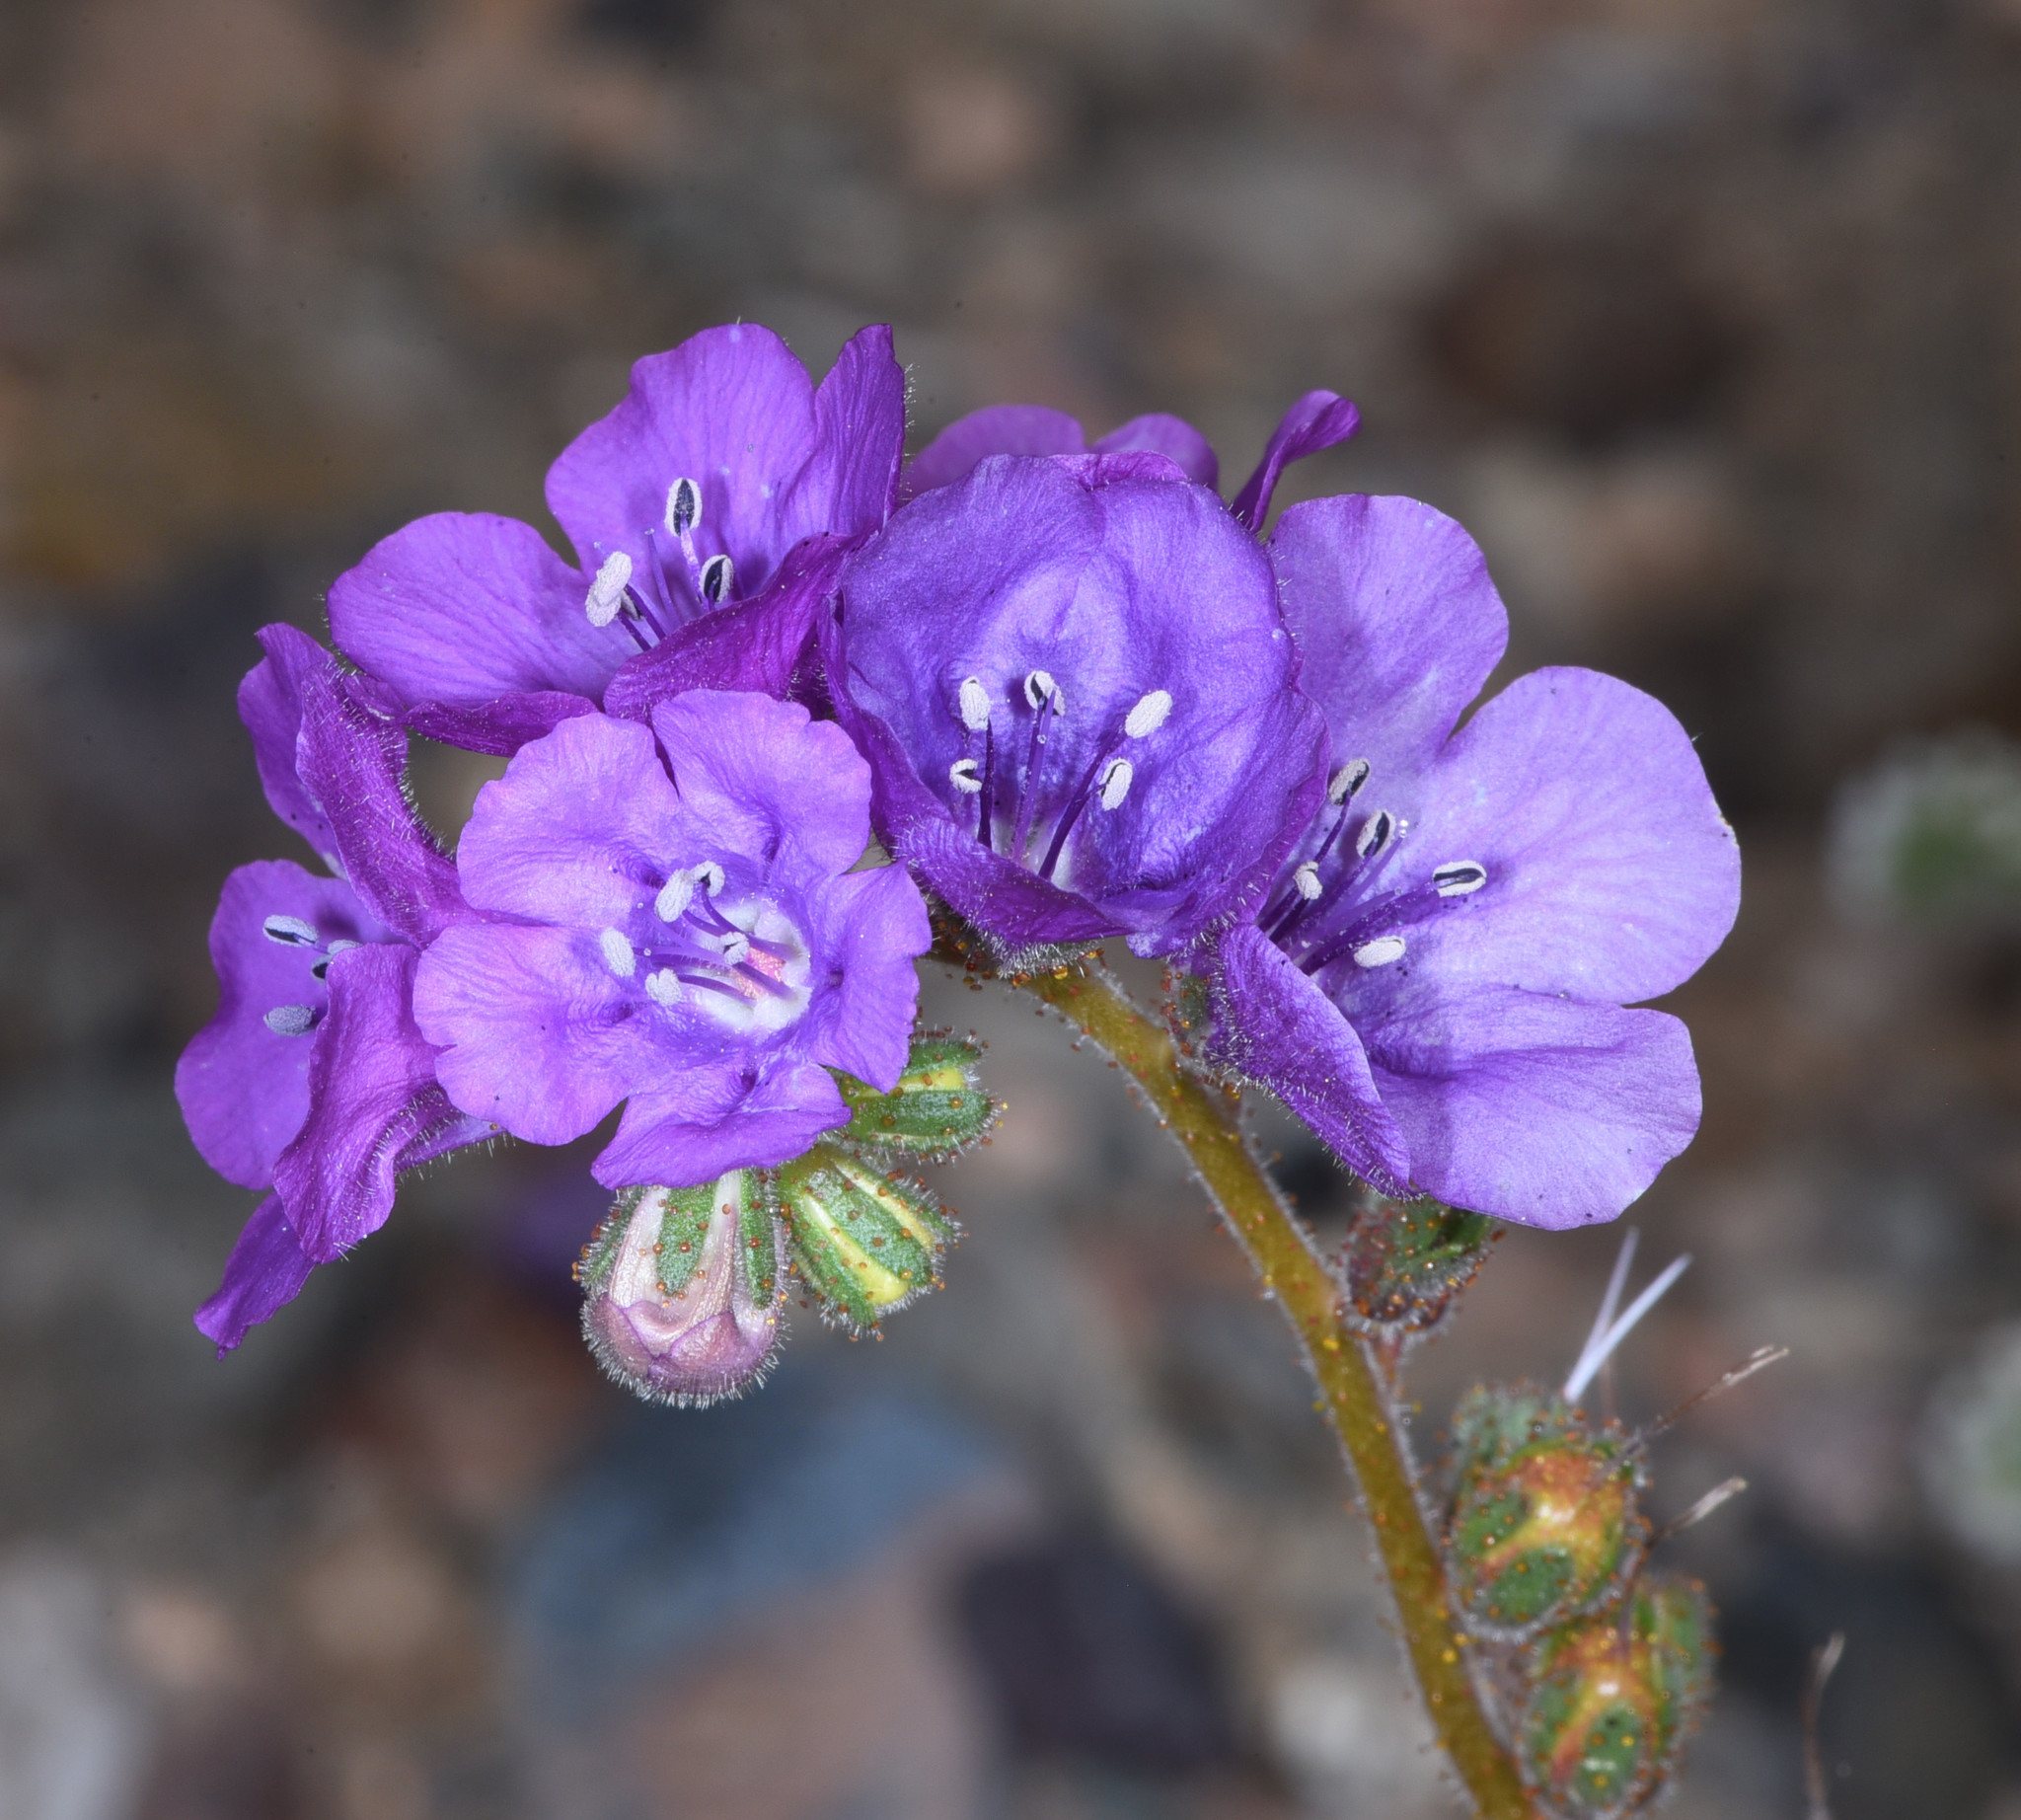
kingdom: Plantae
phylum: Tracheophyta
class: Magnoliopsida
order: Boraginales
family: Hydrophyllaceae
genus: Phacelia
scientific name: Phacelia calthifolia
